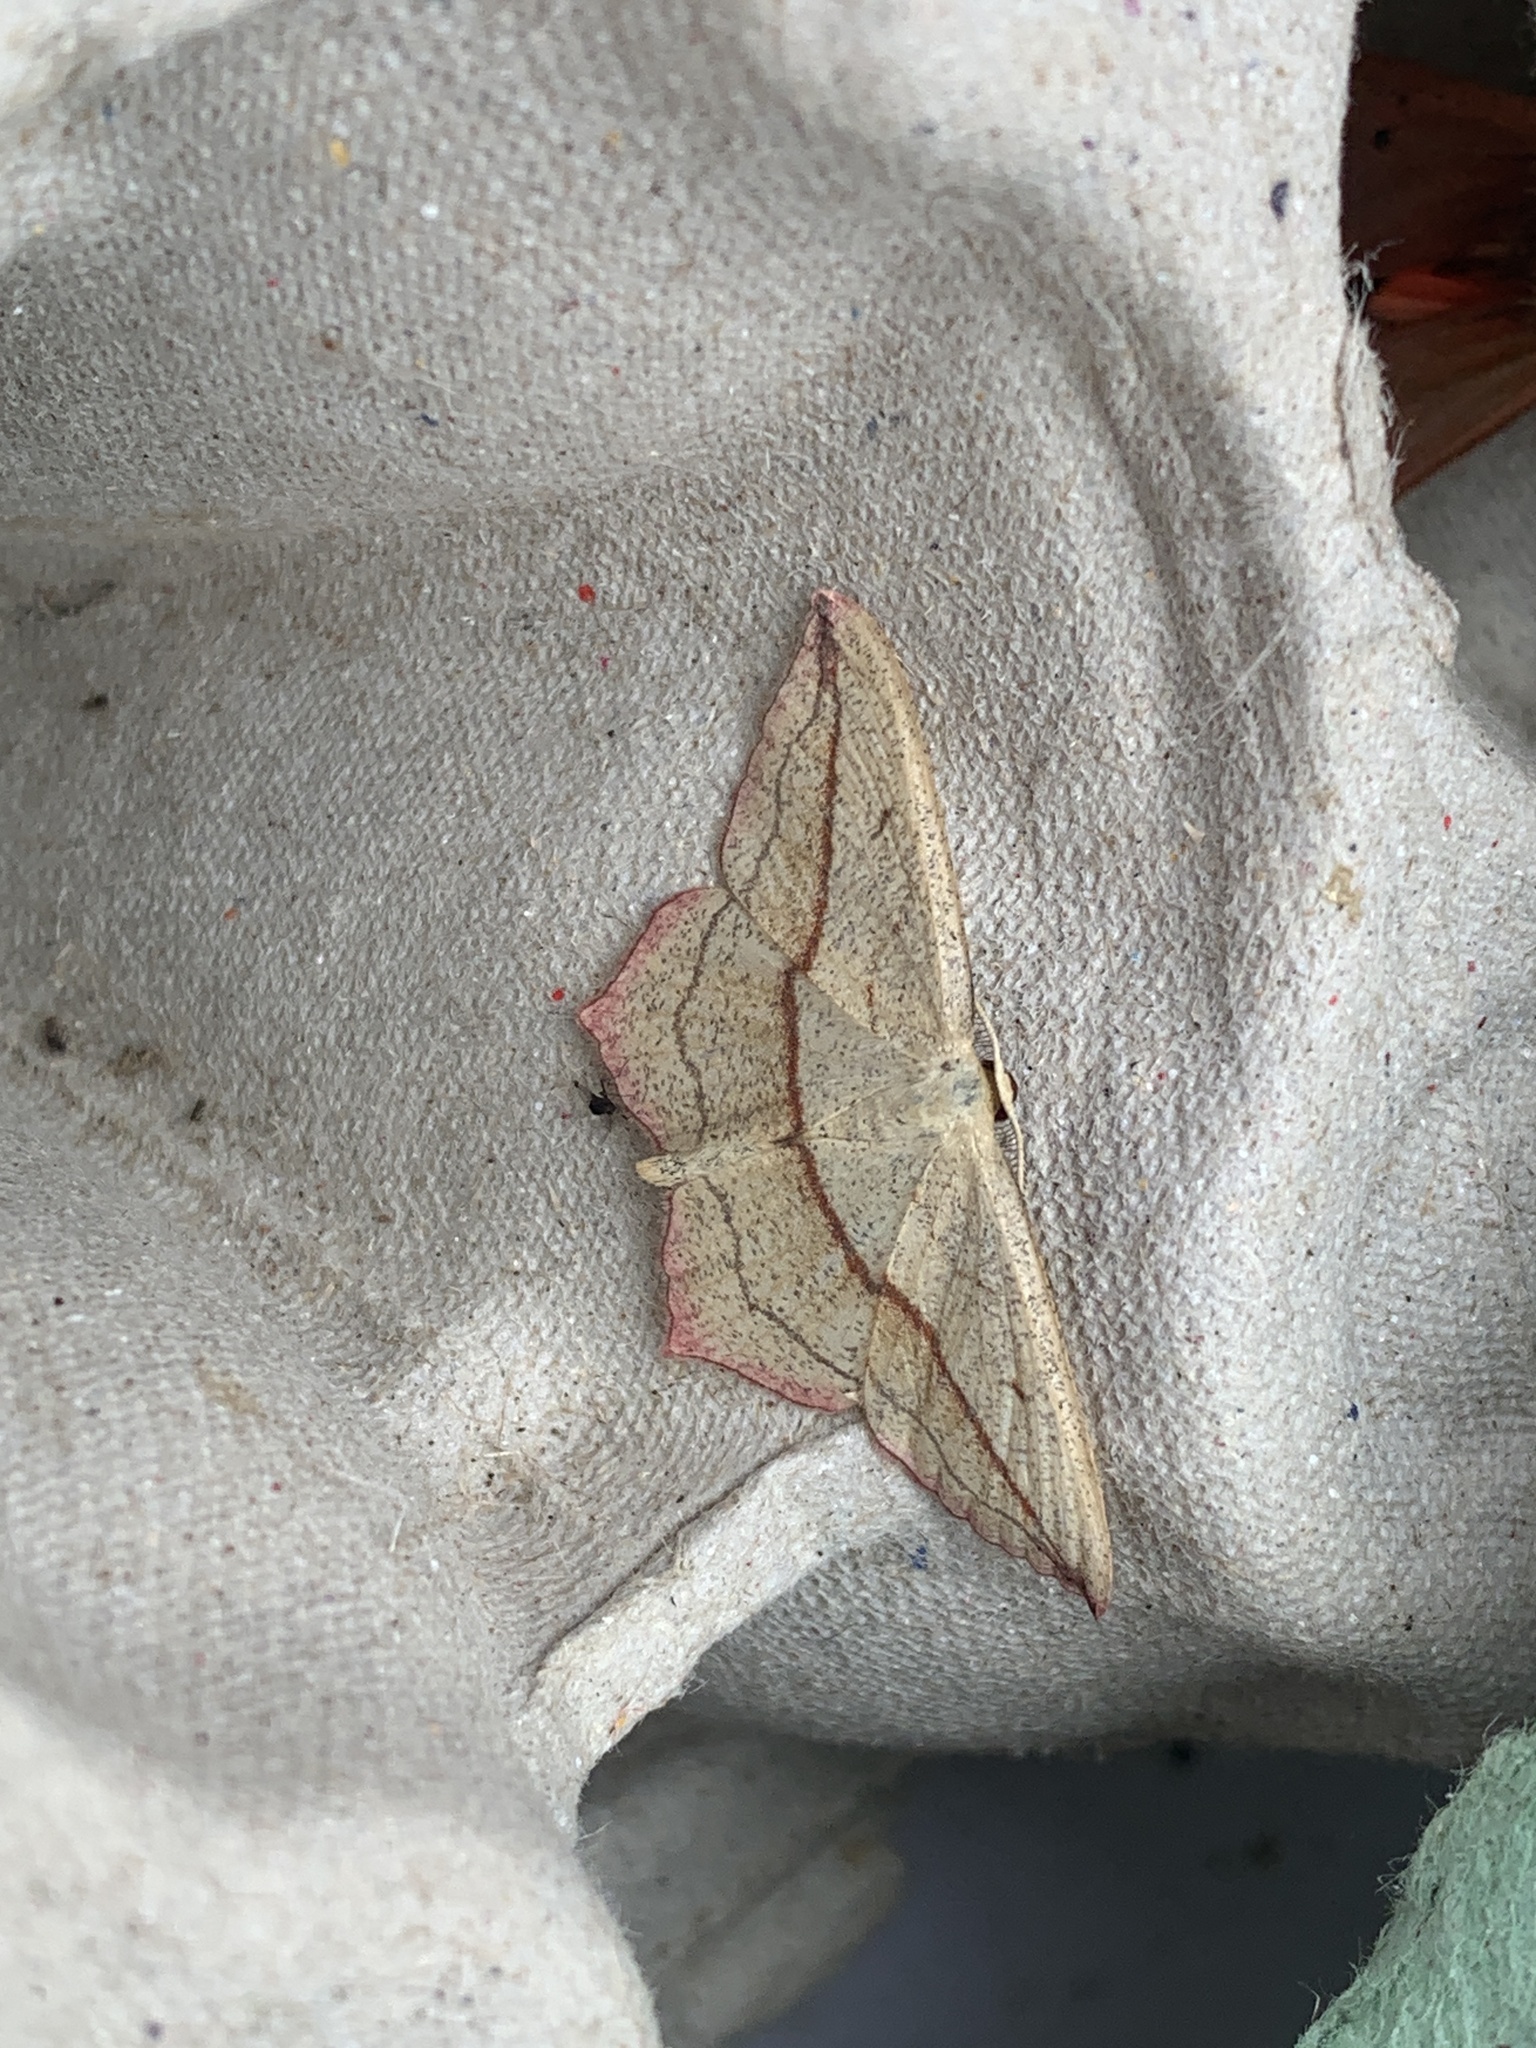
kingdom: Animalia
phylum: Arthropoda
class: Insecta
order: Lepidoptera
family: Geometridae
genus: Timandra
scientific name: Timandra comae
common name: Blood-vein
